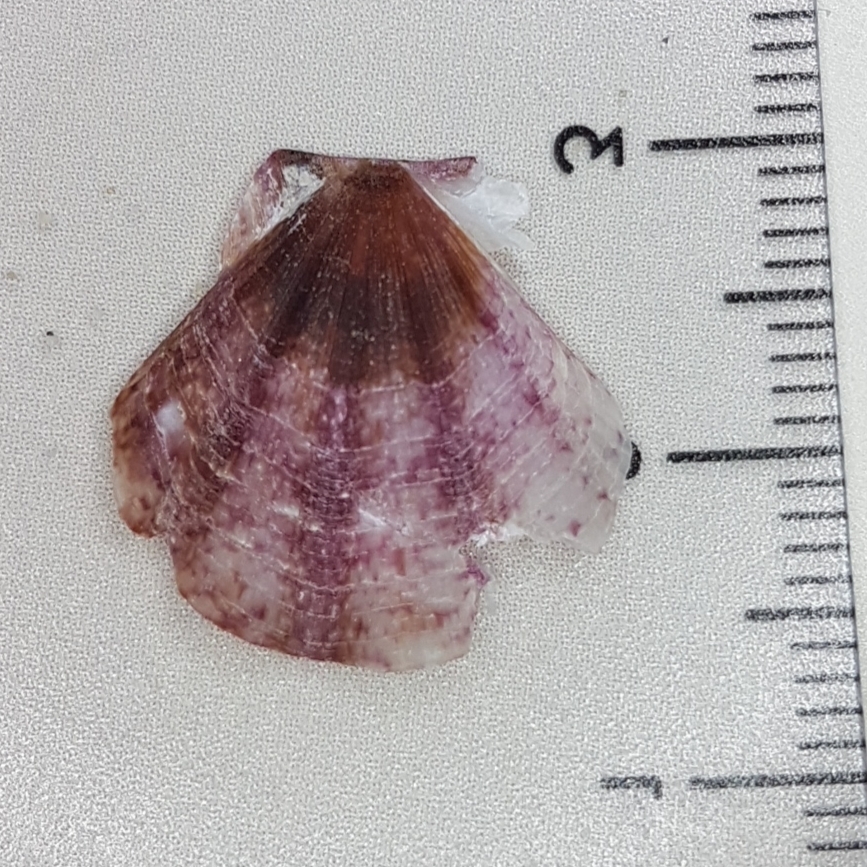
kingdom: Animalia
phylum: Mollusca
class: Bivalvia
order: Pectinida
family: Pectinidae
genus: Flexopecten
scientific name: Flexopecten flexuosus
